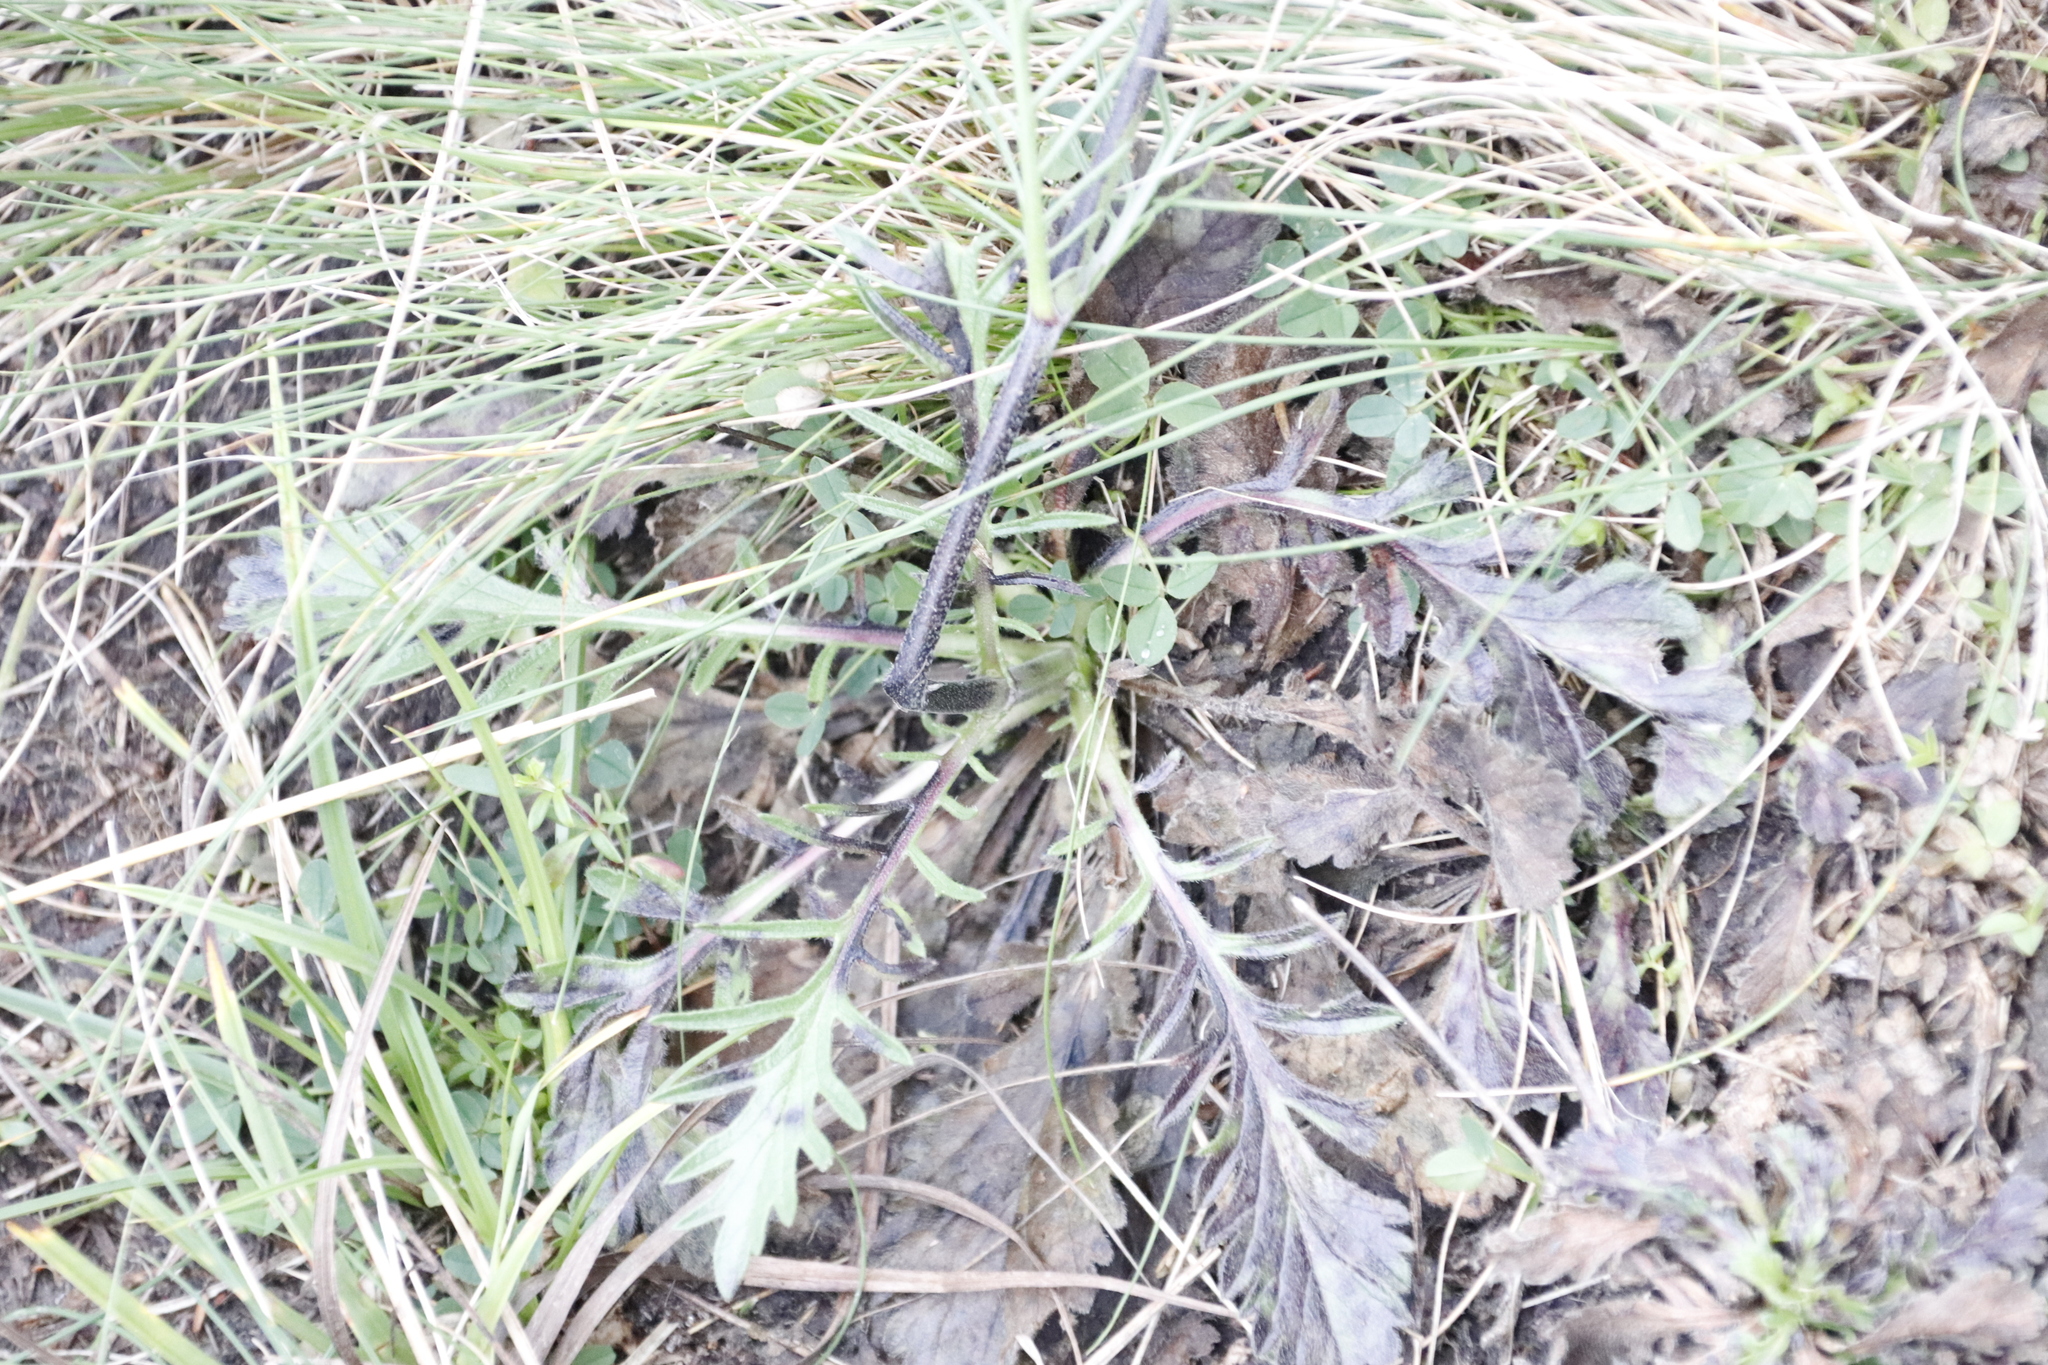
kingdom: Plantae
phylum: Tracheophyta
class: Magnoliopsida
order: Dipsacales
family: Caprifoliaceae
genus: Scabiosa
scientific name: Scabiosa columbaria
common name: Small scabious
